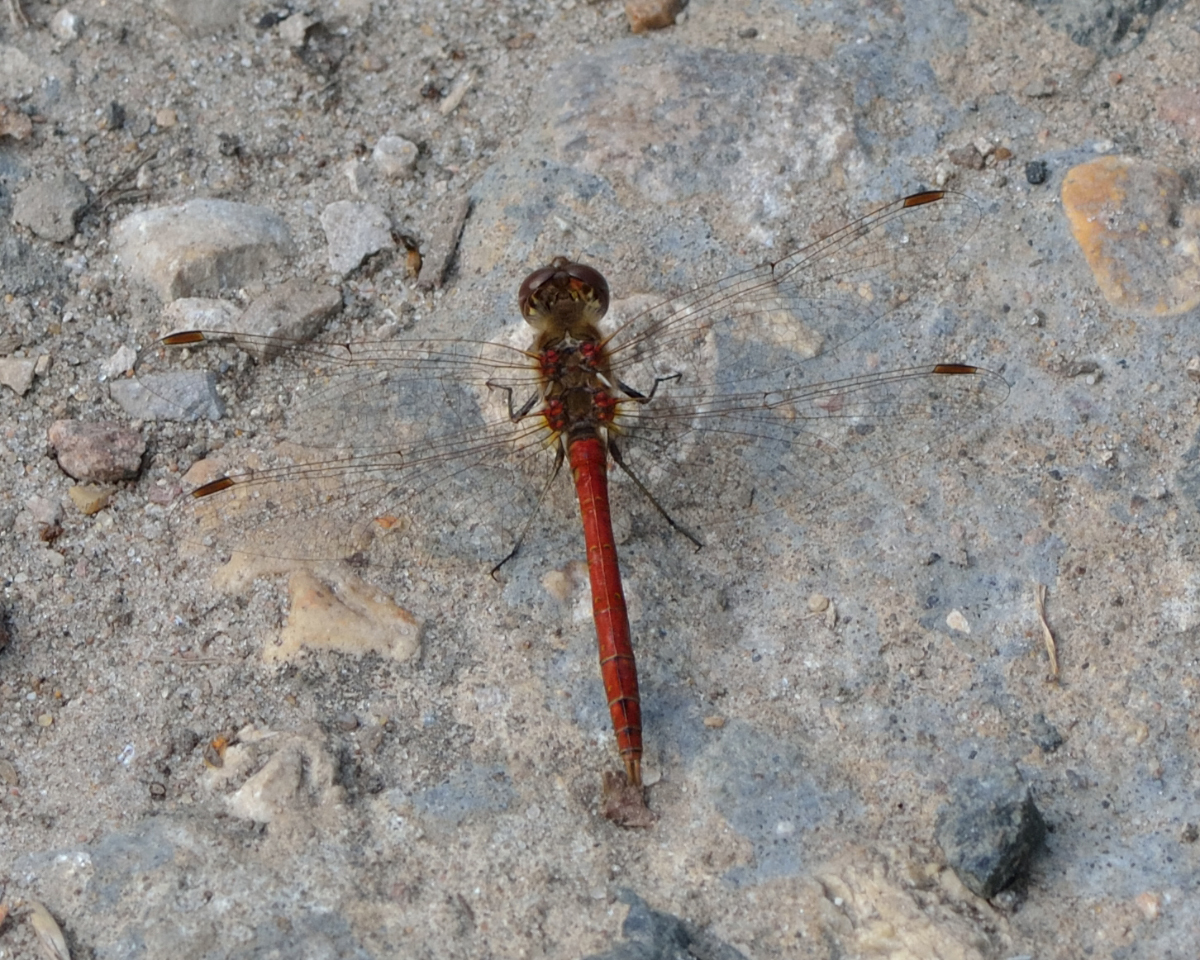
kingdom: Animalia
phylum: Arthropoda
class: Insecta
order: Odonata
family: Libellulidae
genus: Sympetrum
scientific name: Sympetrum vulgatum
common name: Vagrant darter
